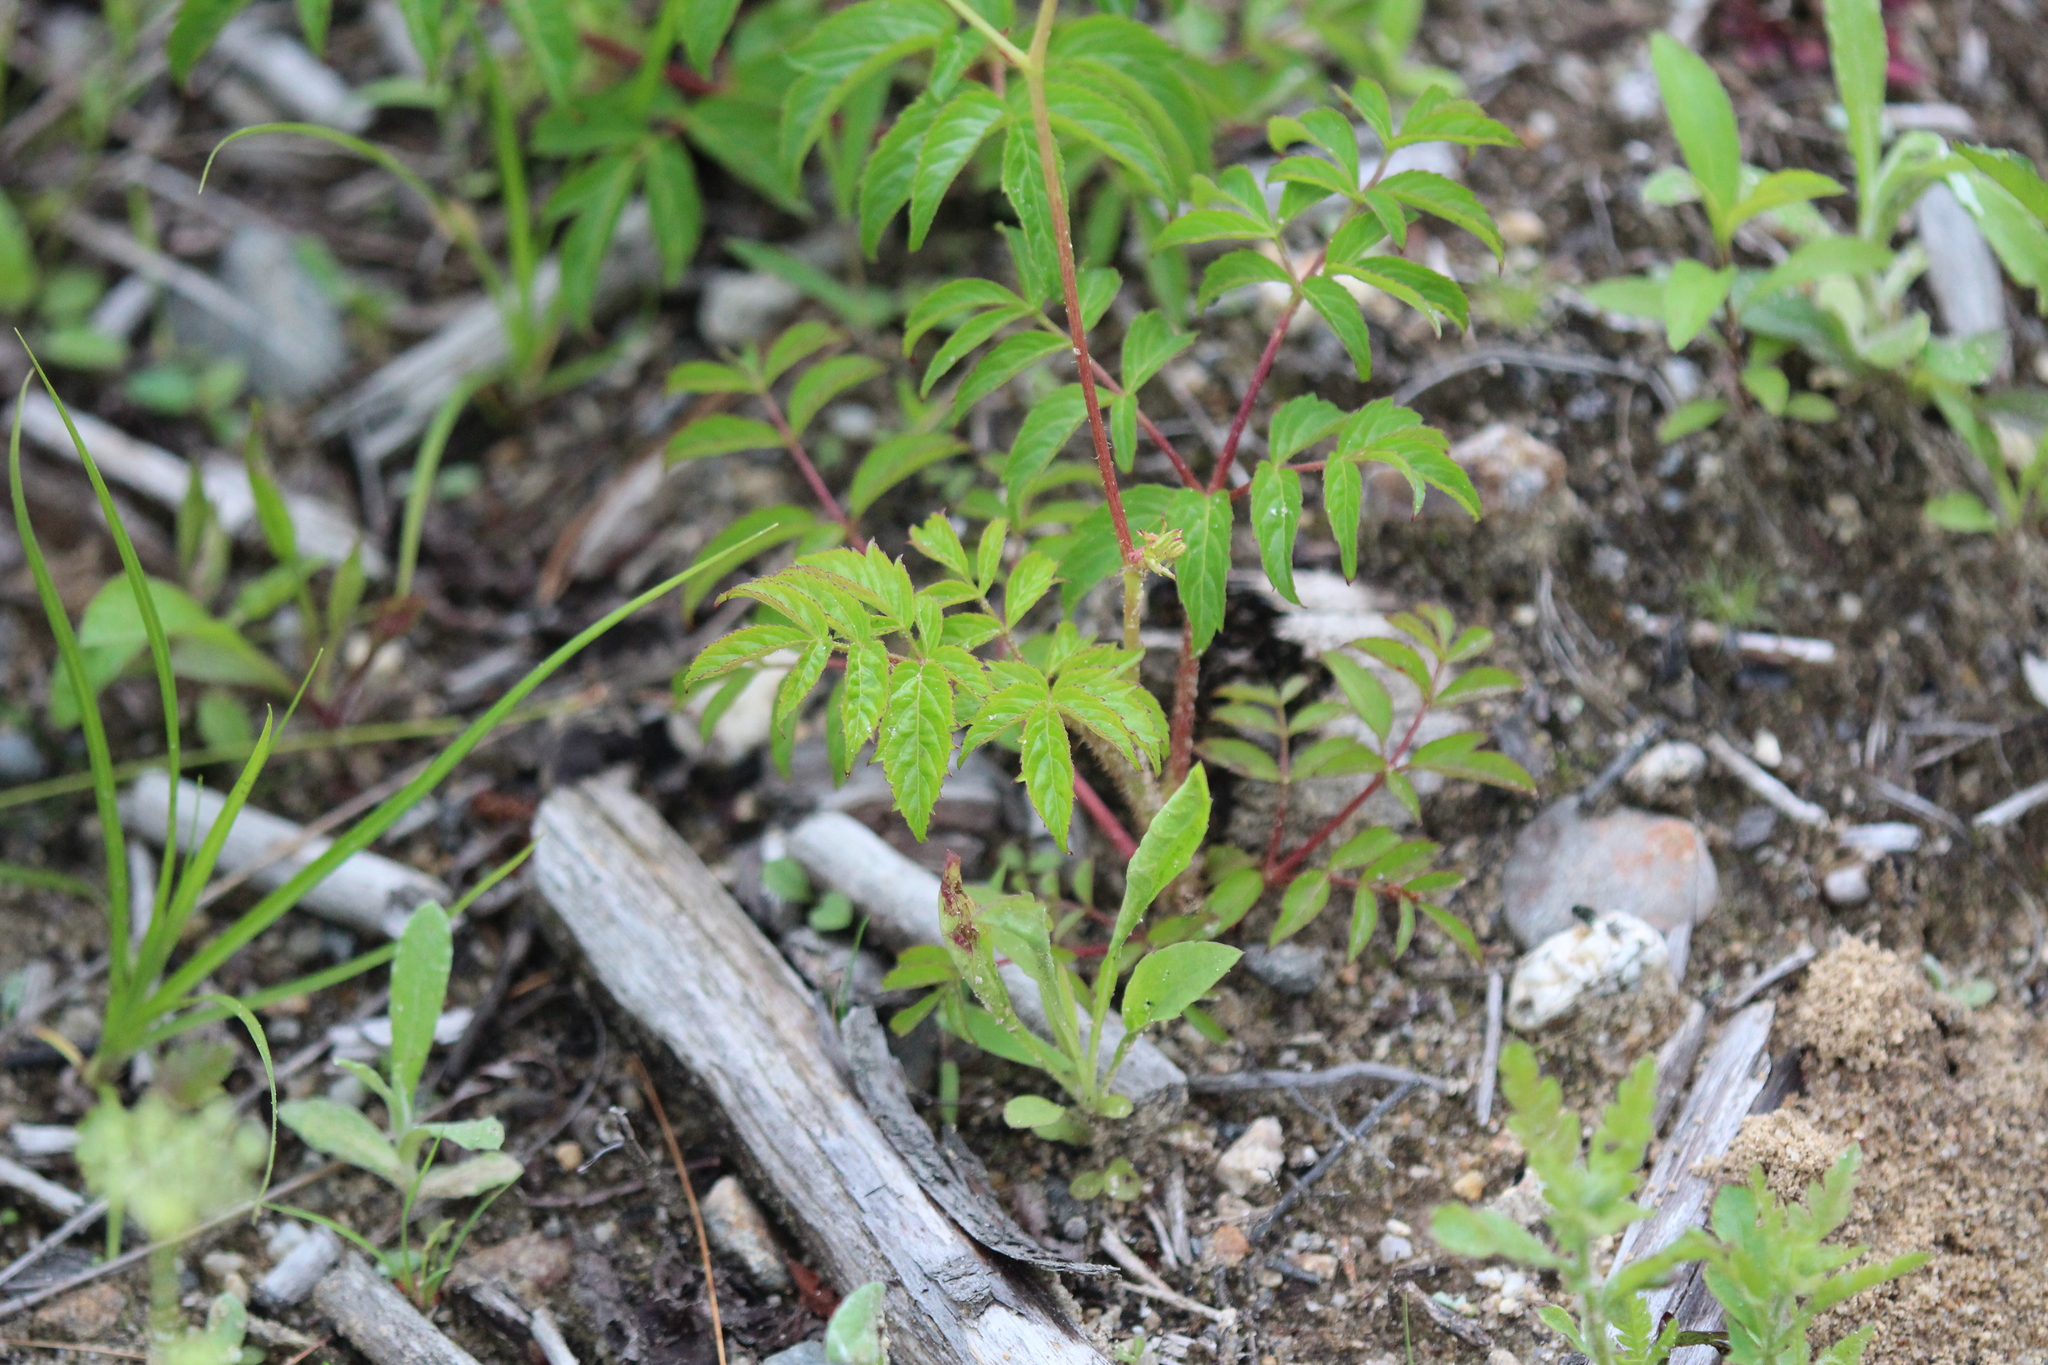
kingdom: Plantae
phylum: Tracheophyta
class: Magnoliopsida
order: Apiales
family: Araliaceae
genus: Aralia
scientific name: Aralia hispida
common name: Bristly sarsaparilla
